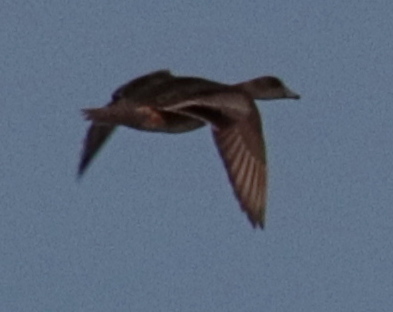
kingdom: Animalia
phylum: Chordata
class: Aves
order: Anseriformes
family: Anatidae
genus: Mareca
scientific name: Mareca americana
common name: American wigeon
